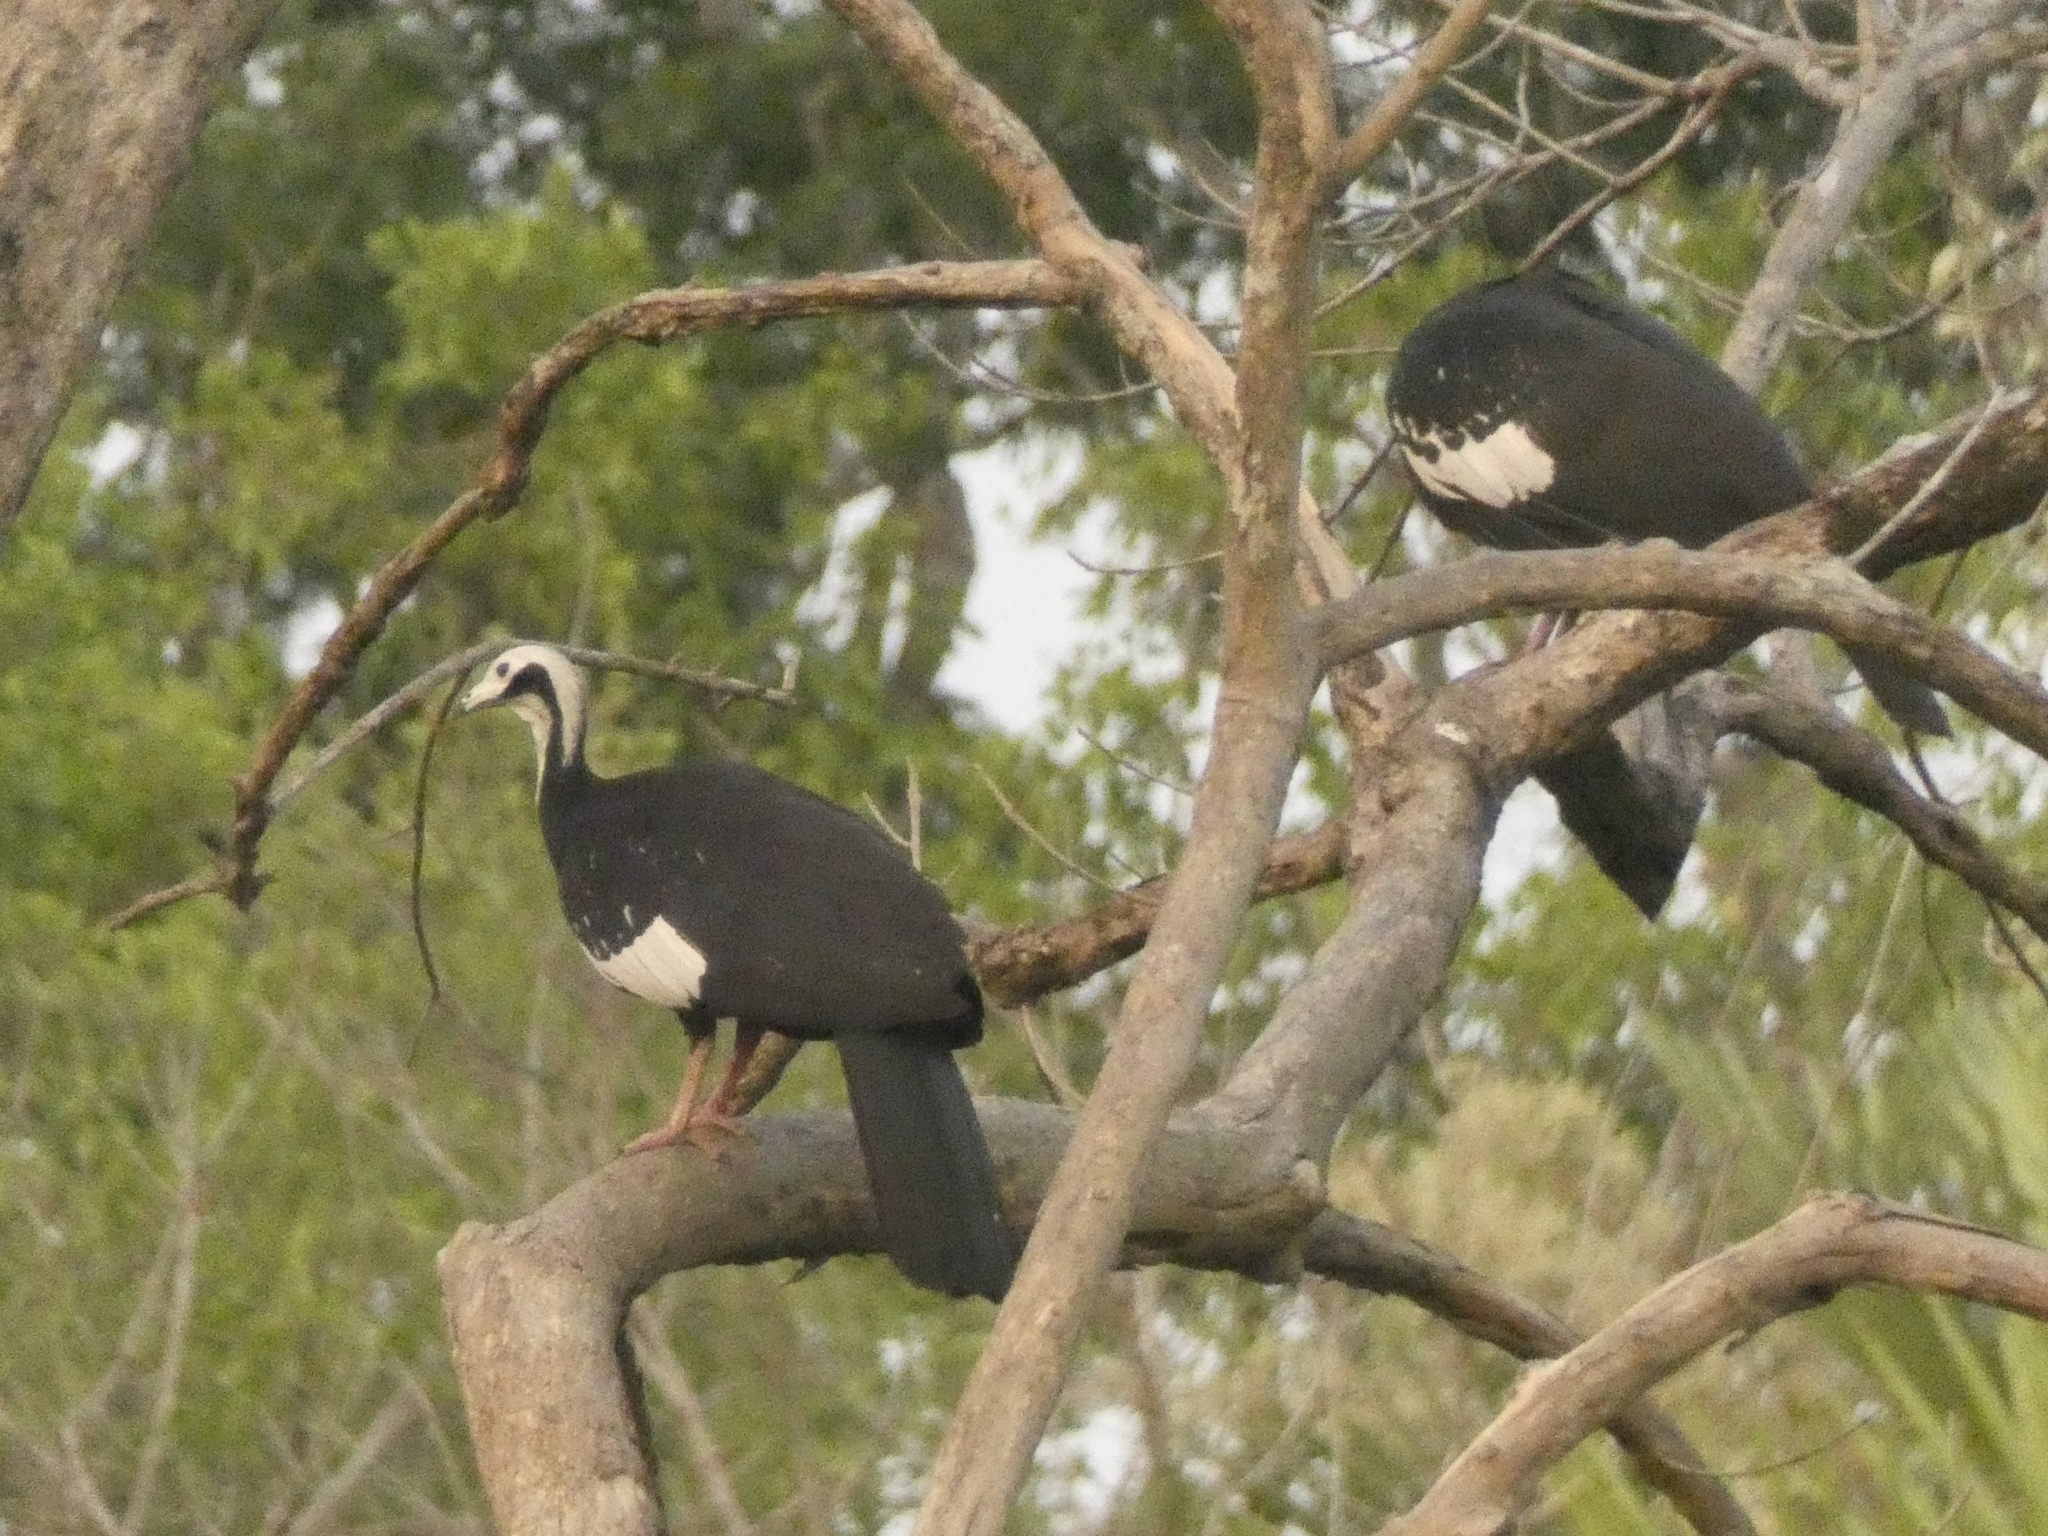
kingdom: Animalia
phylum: Chordata
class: Aves
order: Galliformes
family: Cracidae
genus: Pipile
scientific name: Pipile cumanensis
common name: Blue-throated piping-guan
